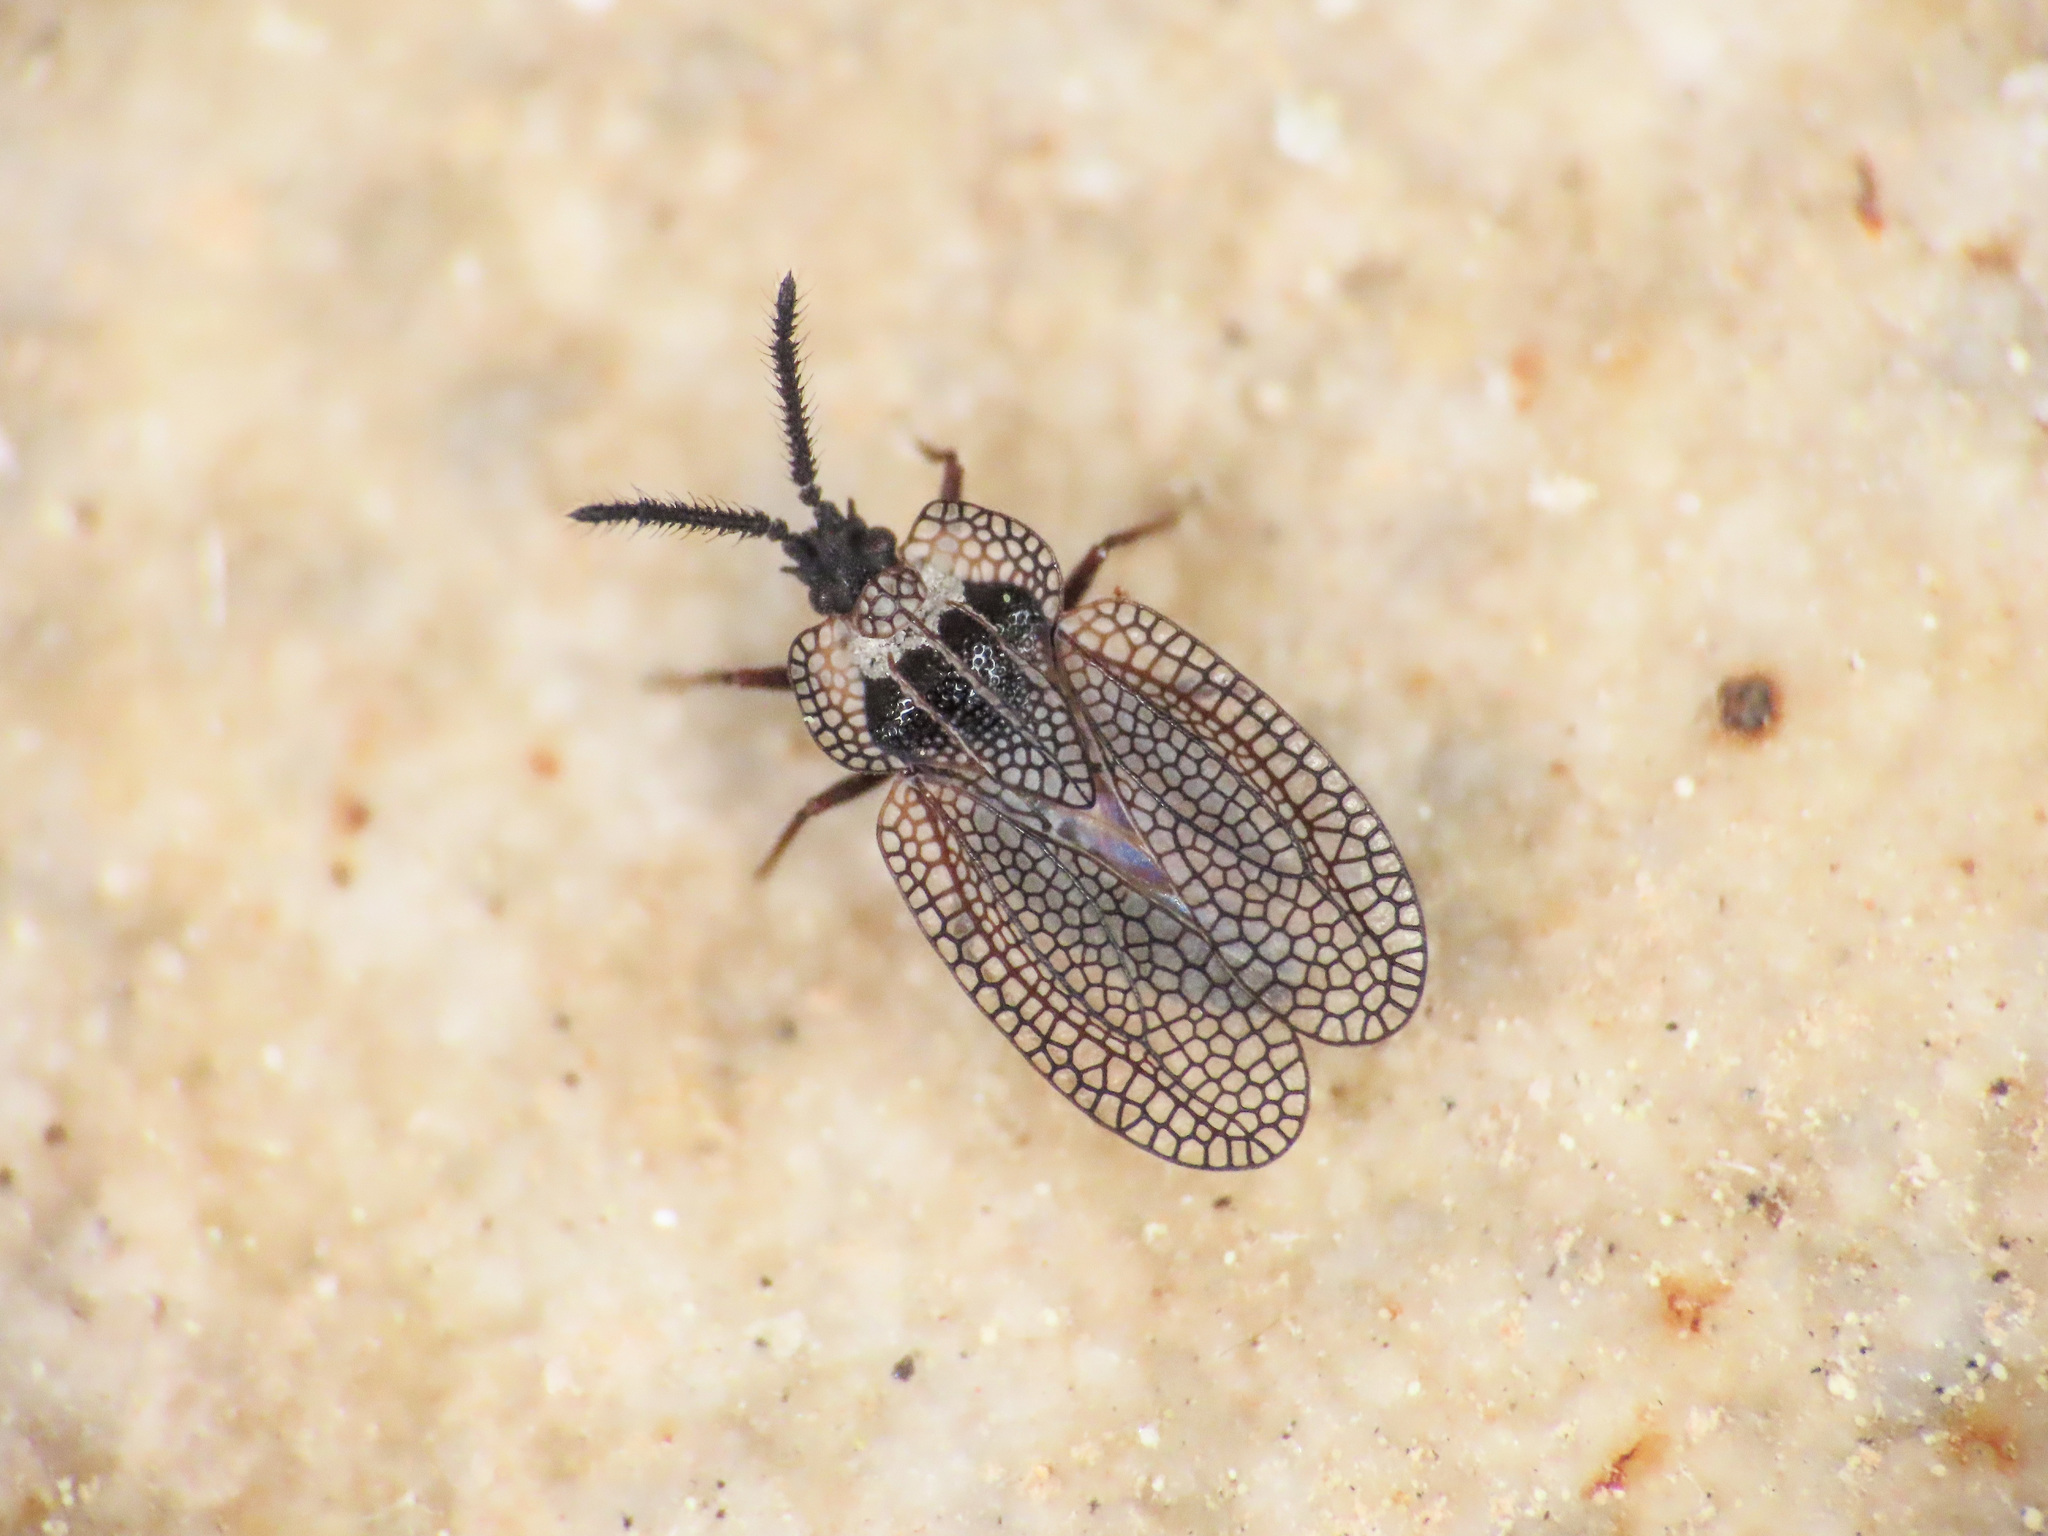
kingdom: Animalia
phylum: Arthropoda
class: Insecta
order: Hemiptera
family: Tingidae
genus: Dictyonota
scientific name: Dictyonota tricornis
